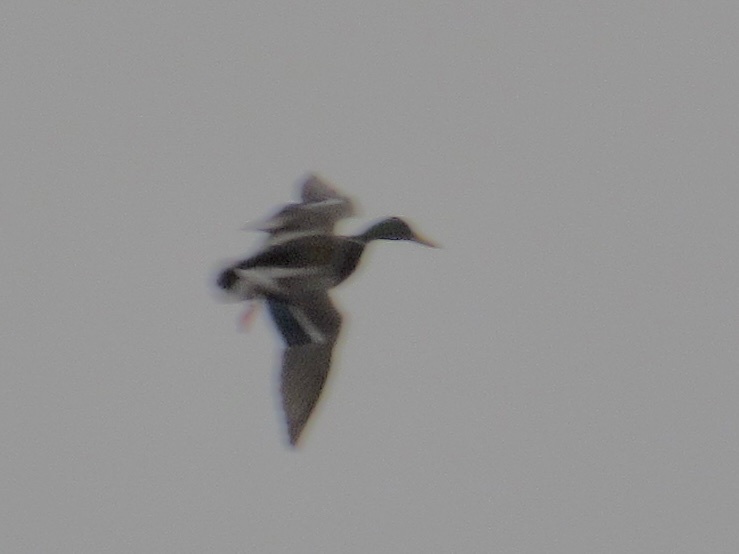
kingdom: Animalia
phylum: Chordata
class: Aves
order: Anseriformes
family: Anatidae
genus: Anas
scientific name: Anas platyrhynchos
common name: Mallard
